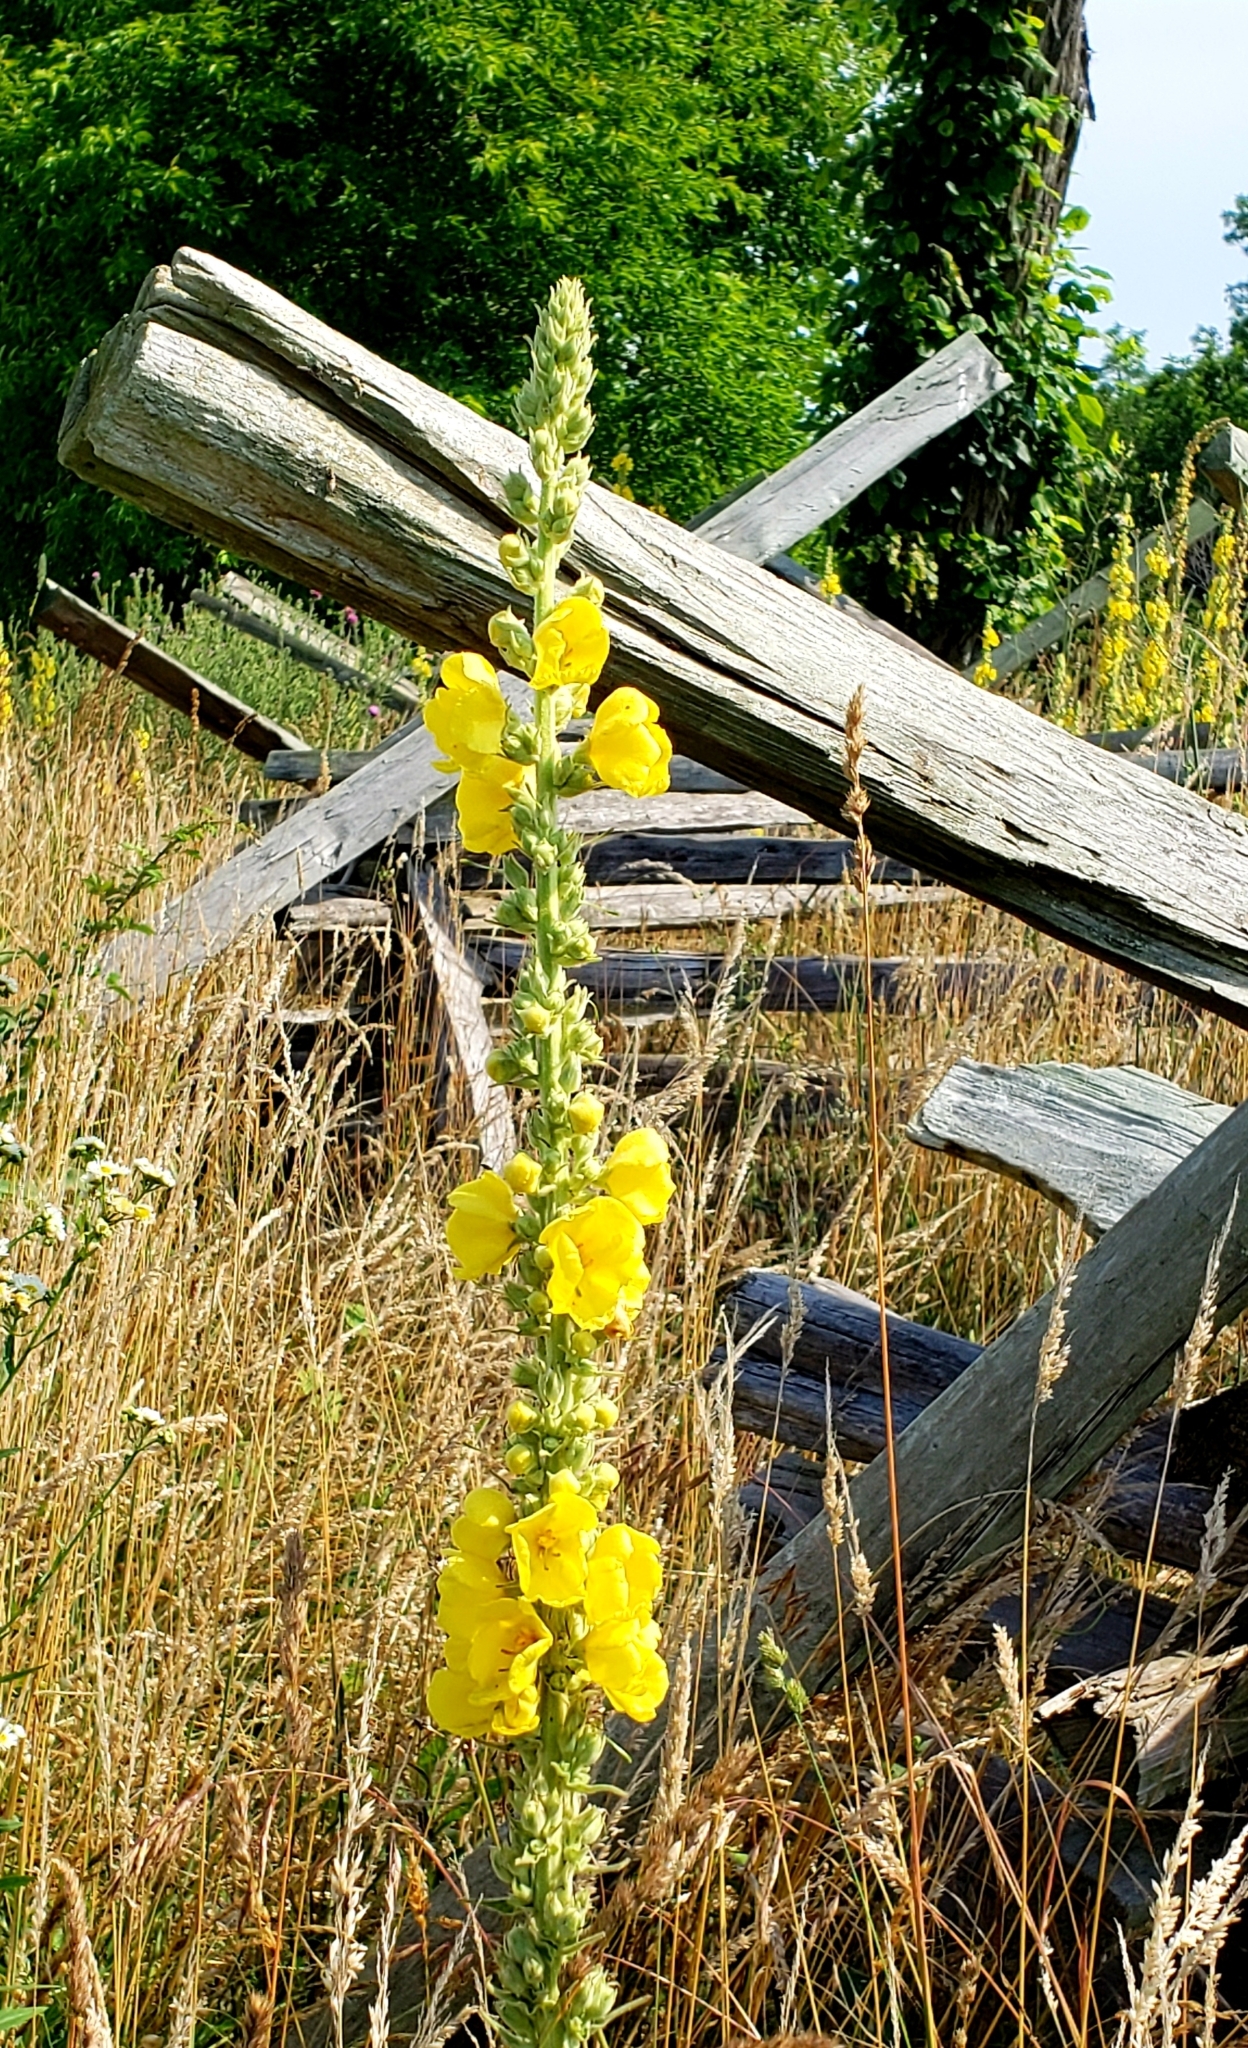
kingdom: Plantae
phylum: Tracheophyta
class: Magnoliopsida
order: Lamiales
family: Scrophulariaceae
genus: Verbascum
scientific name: Verbascum phlomoides
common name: Orange mullein
